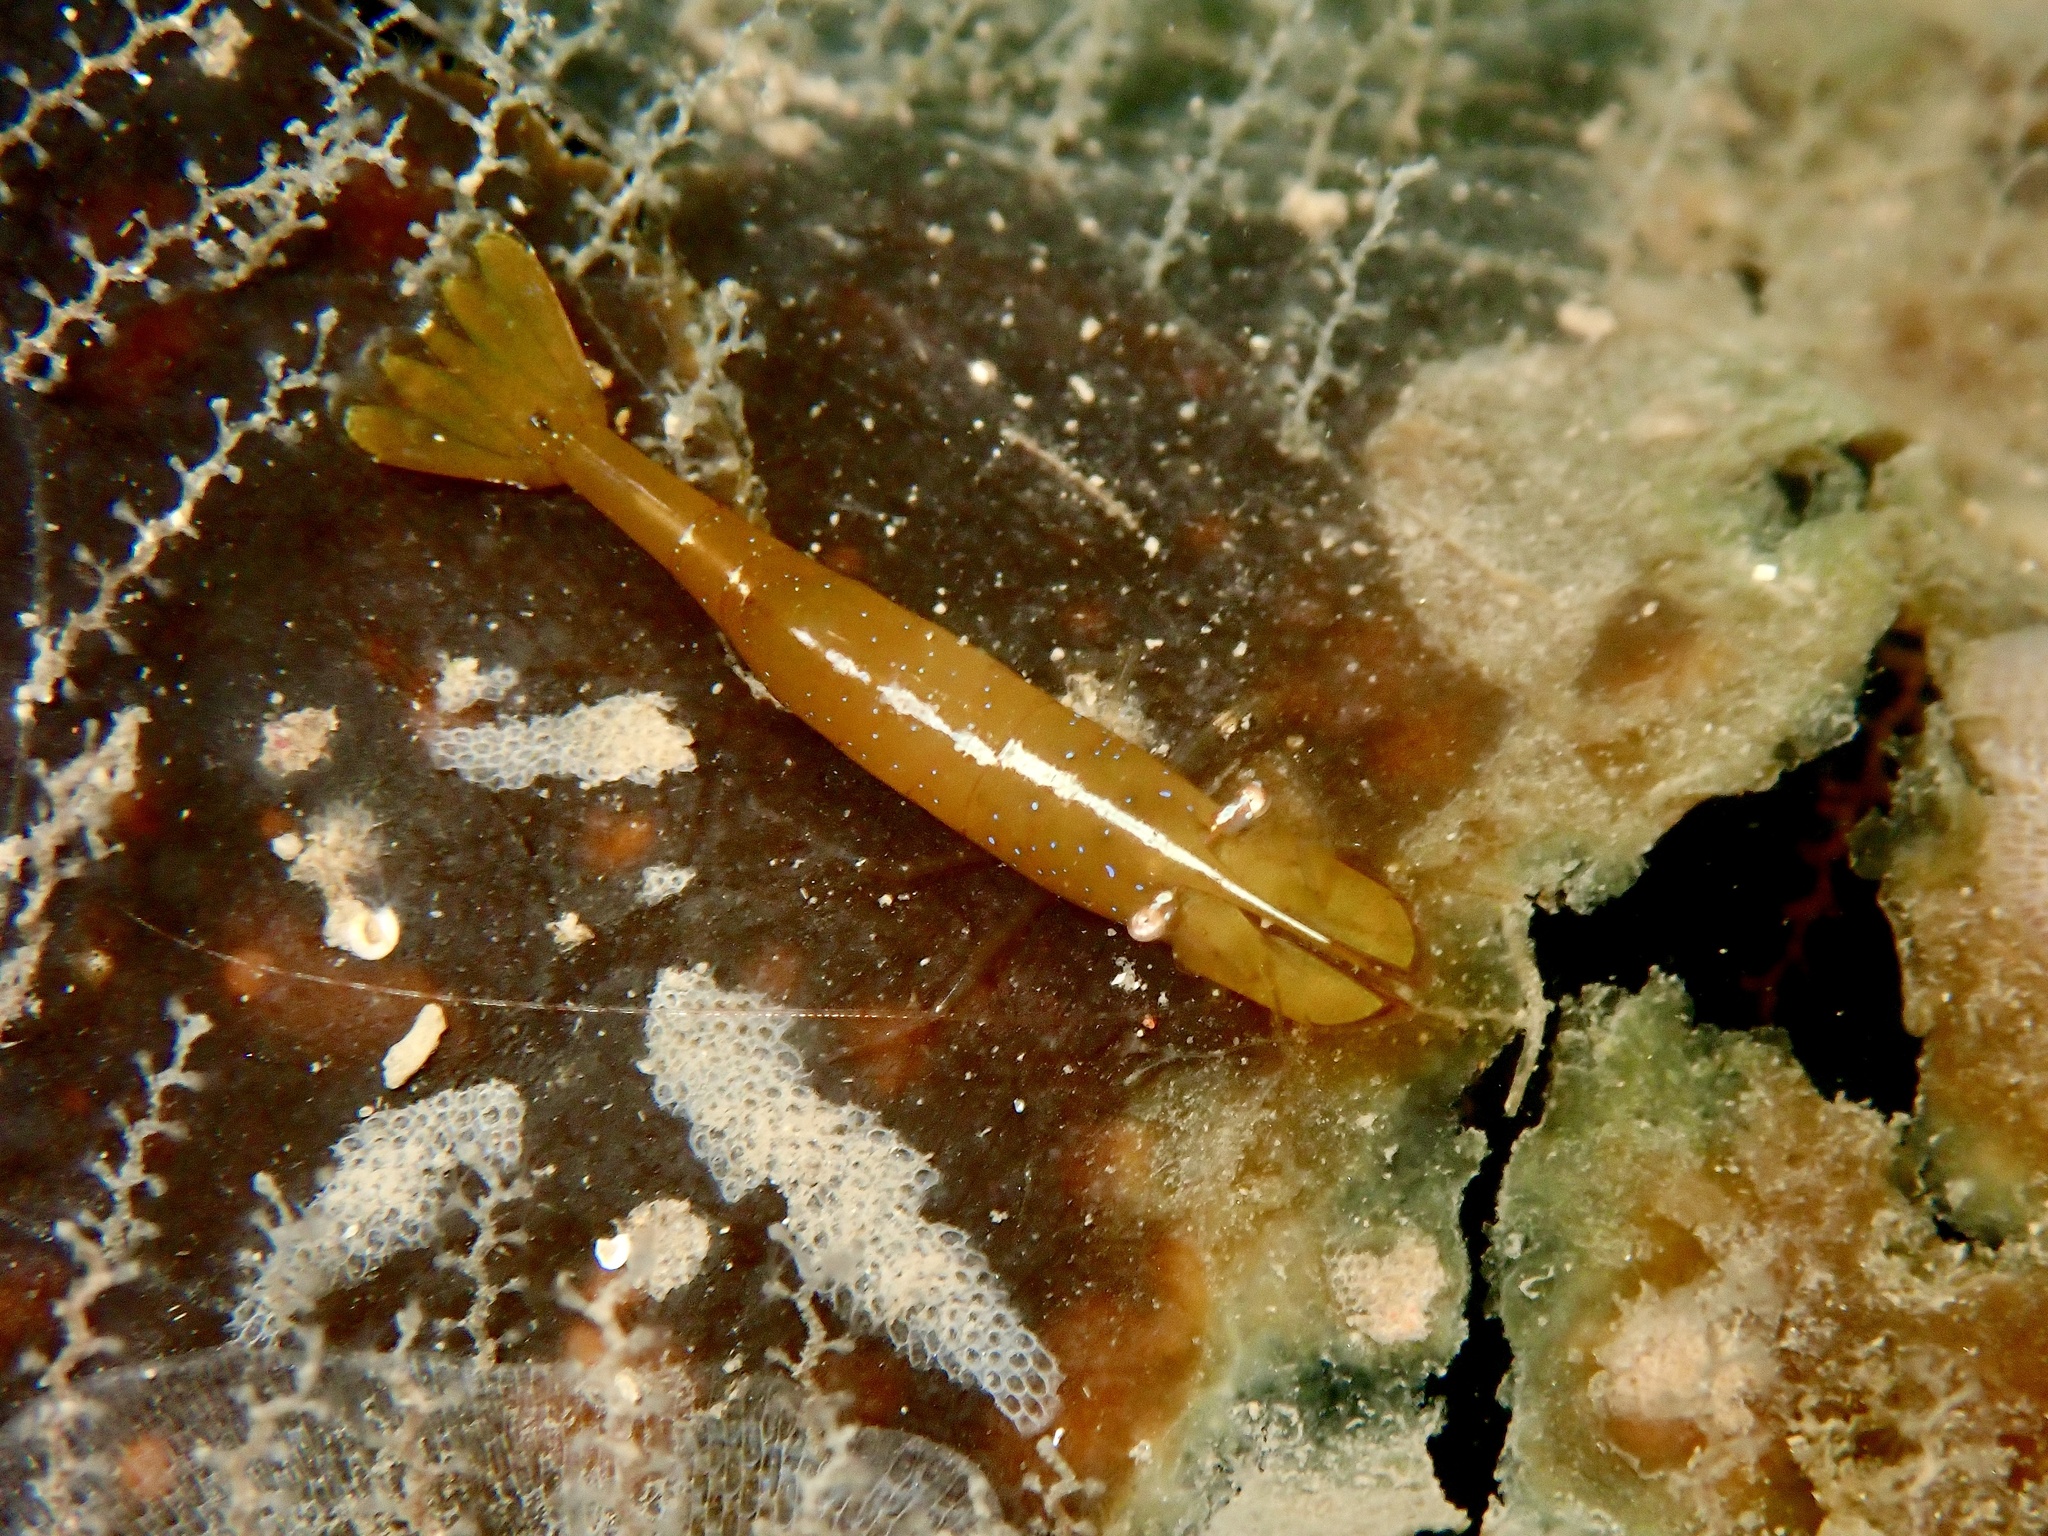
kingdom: Animalia
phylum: Arthropoda
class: Malacostraca
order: Decapoda
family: Hippolytidae
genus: Hippolyte
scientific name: Hippolyte varians
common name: Chamaeleon prawn
